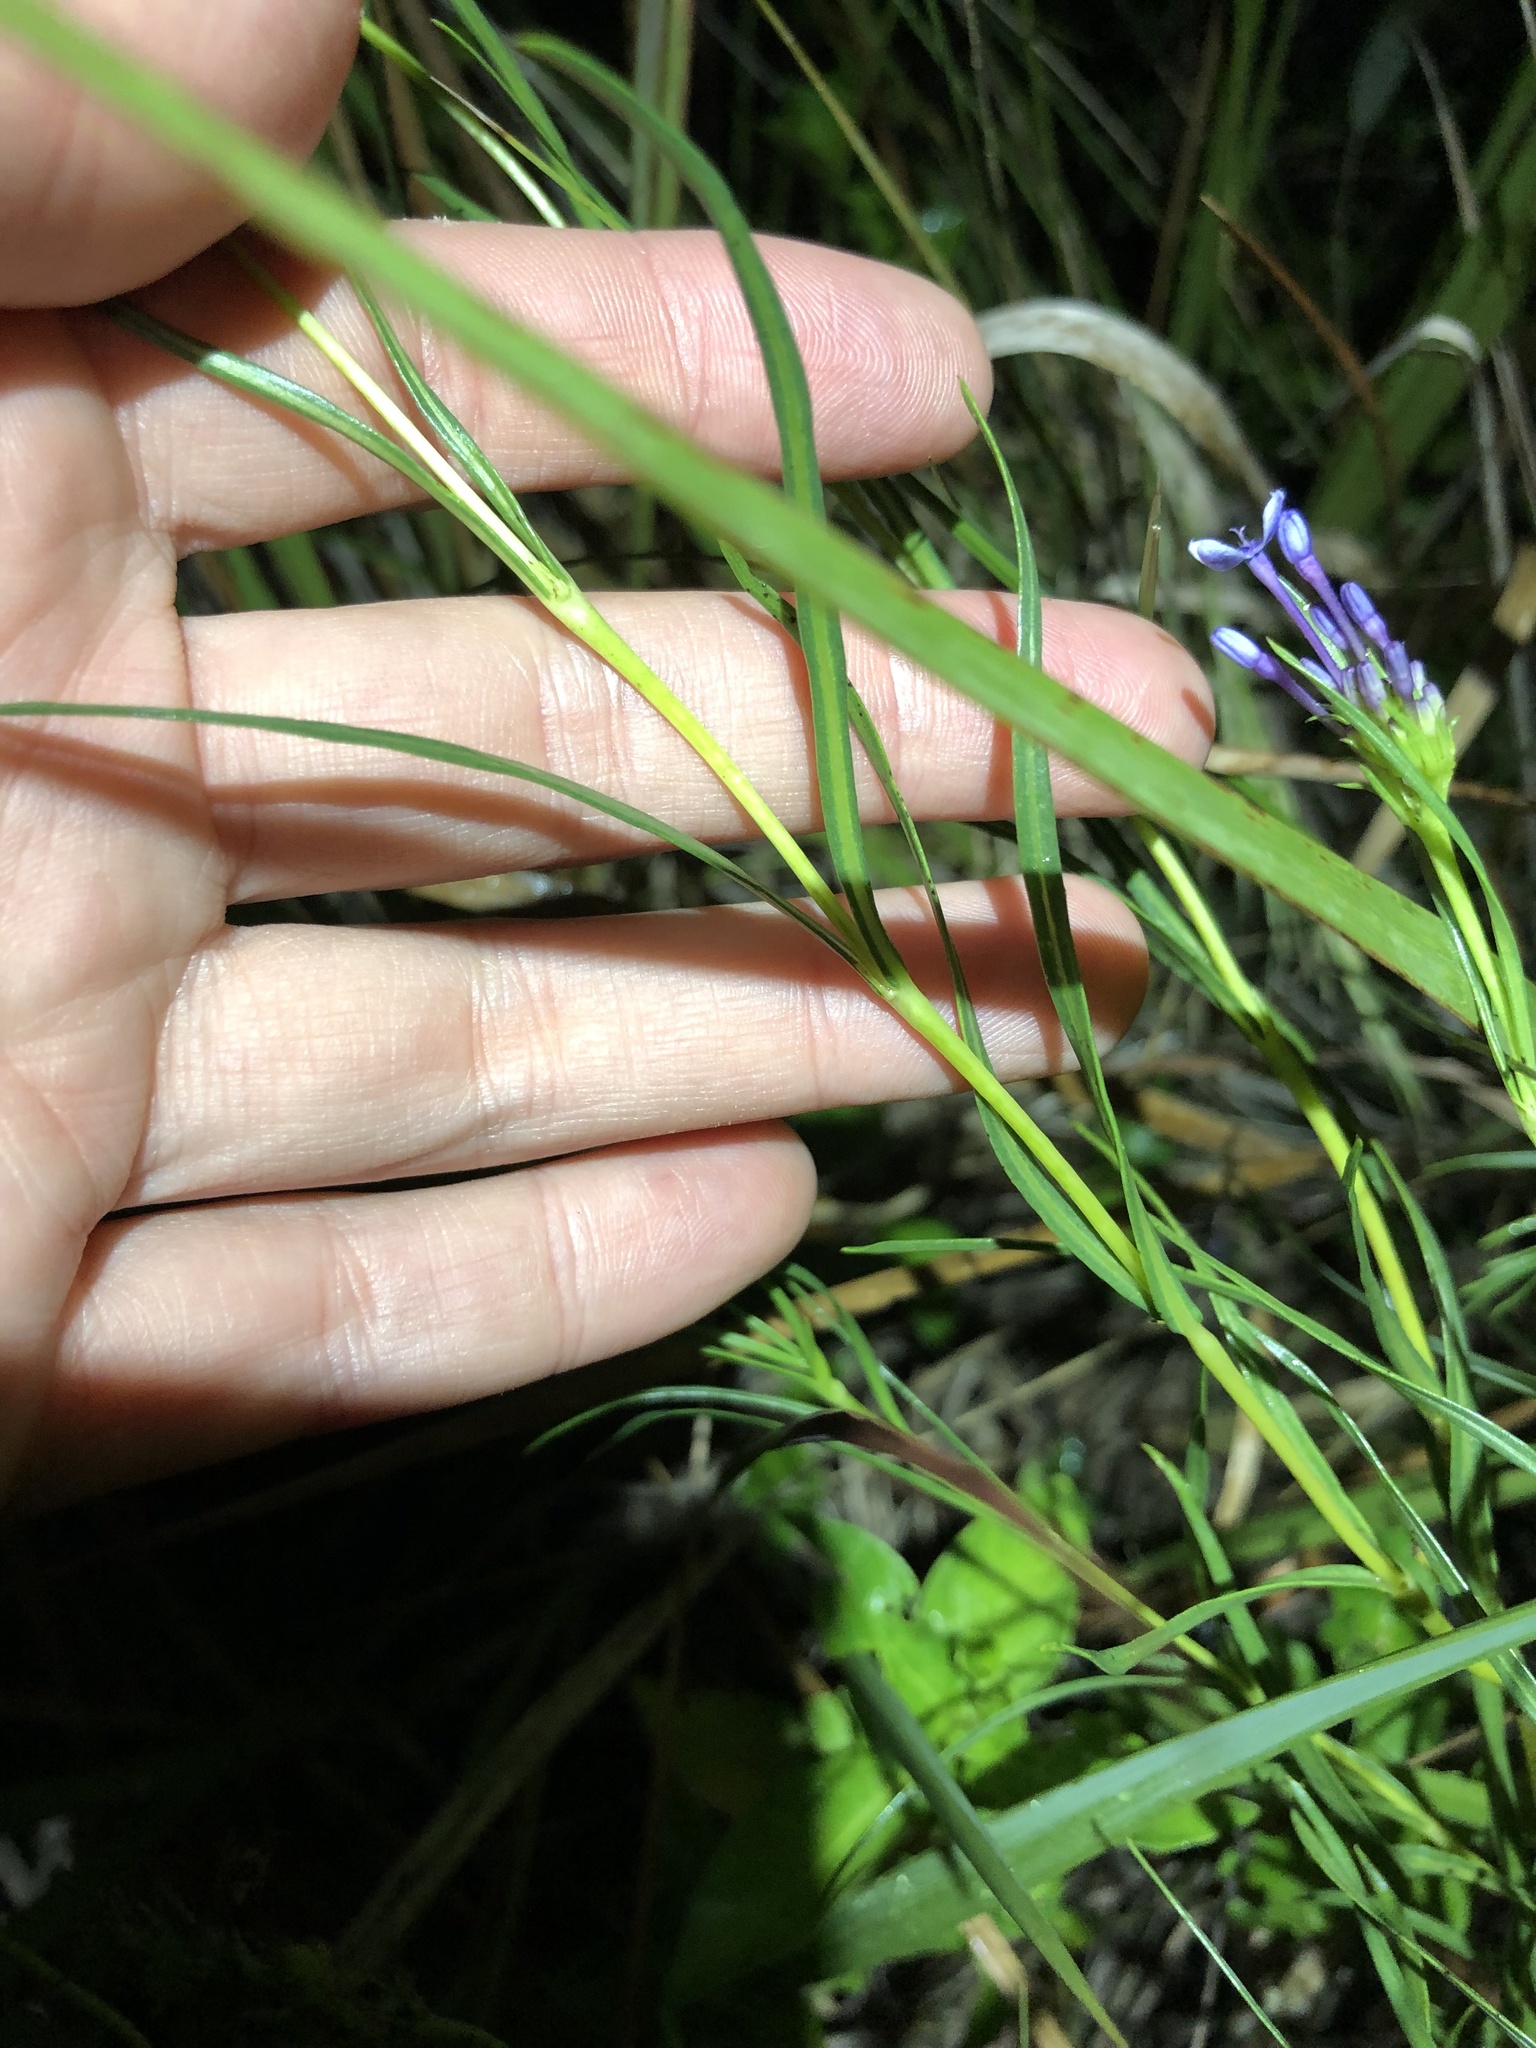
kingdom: Plantae
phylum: Tracheophyta
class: Magnoliopsida
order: Gentianales
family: Rubiaceae
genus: Pentanisia
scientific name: Pentanisia angustifolia
